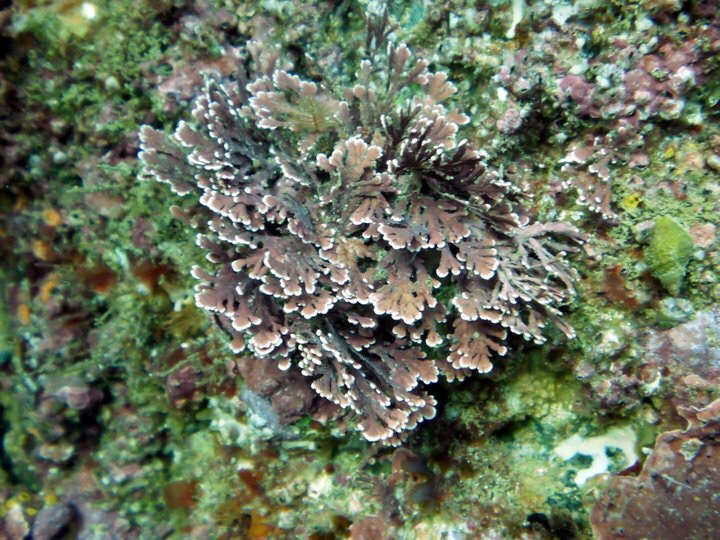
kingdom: Plantae
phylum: Rhodophyta
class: Florideophyceae
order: Corallinales
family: Corallinaceae
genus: Arthrocardia
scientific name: Arthrocardia corymbosa
